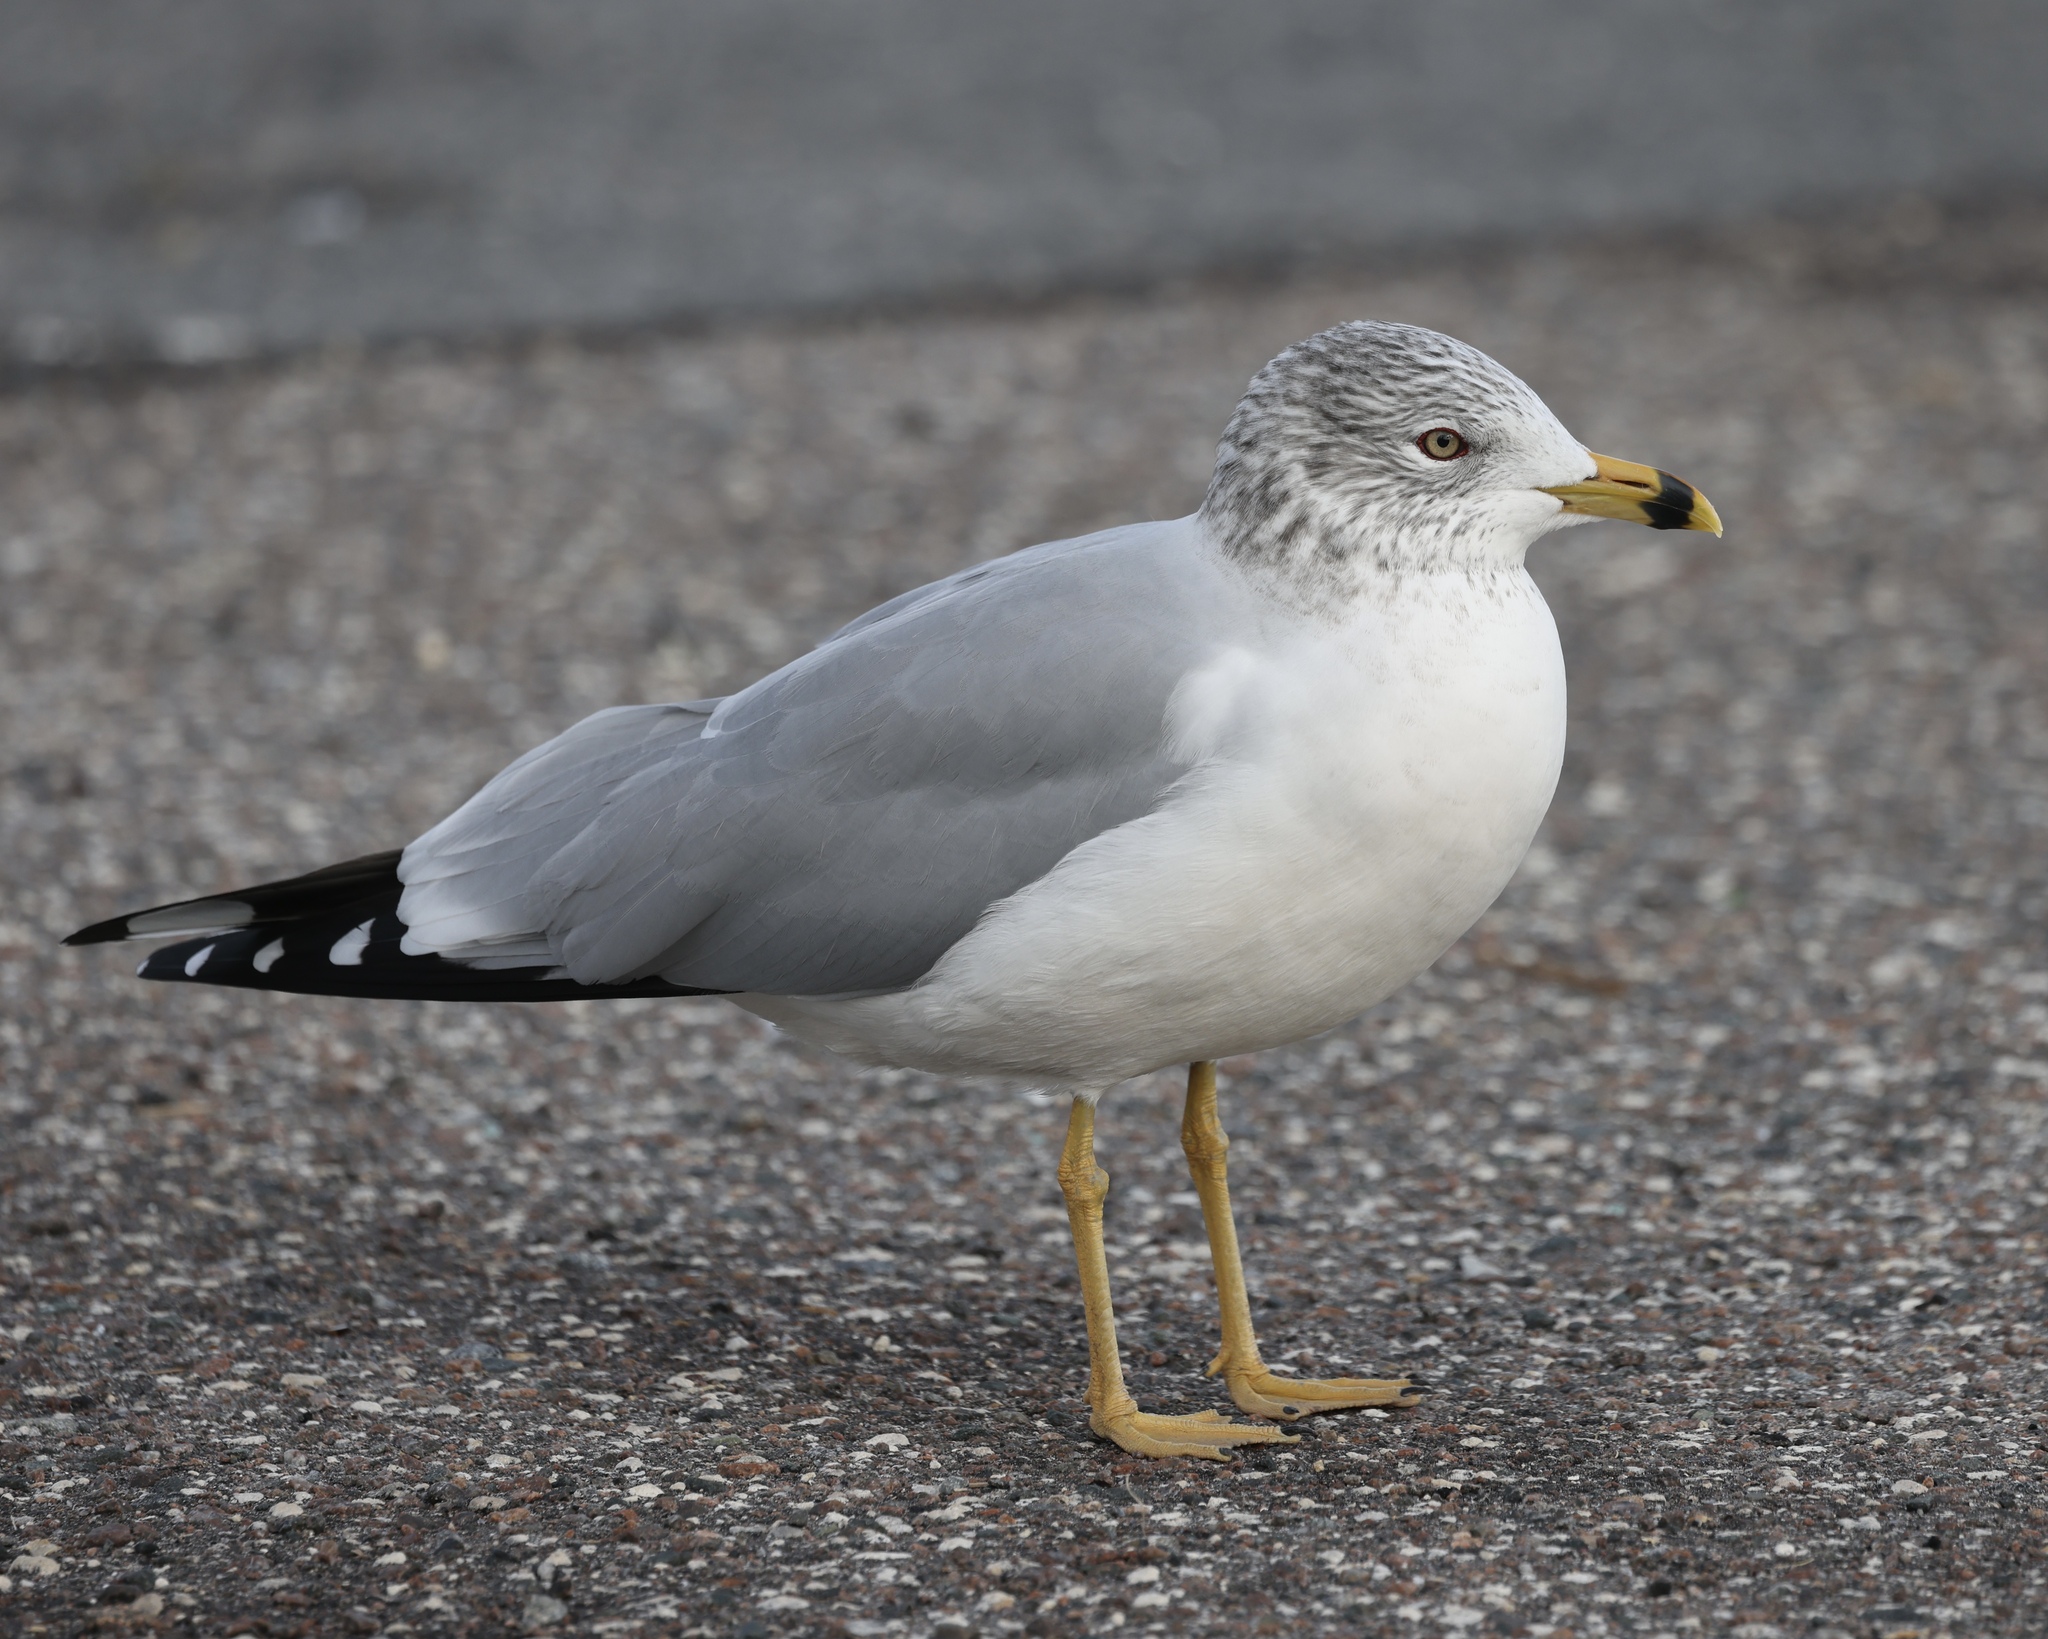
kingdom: Animalia
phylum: Chordata
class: Aves
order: Charadriiformes
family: Laridae
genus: Larus
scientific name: Larus delawarensis
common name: Ring-billed gull
